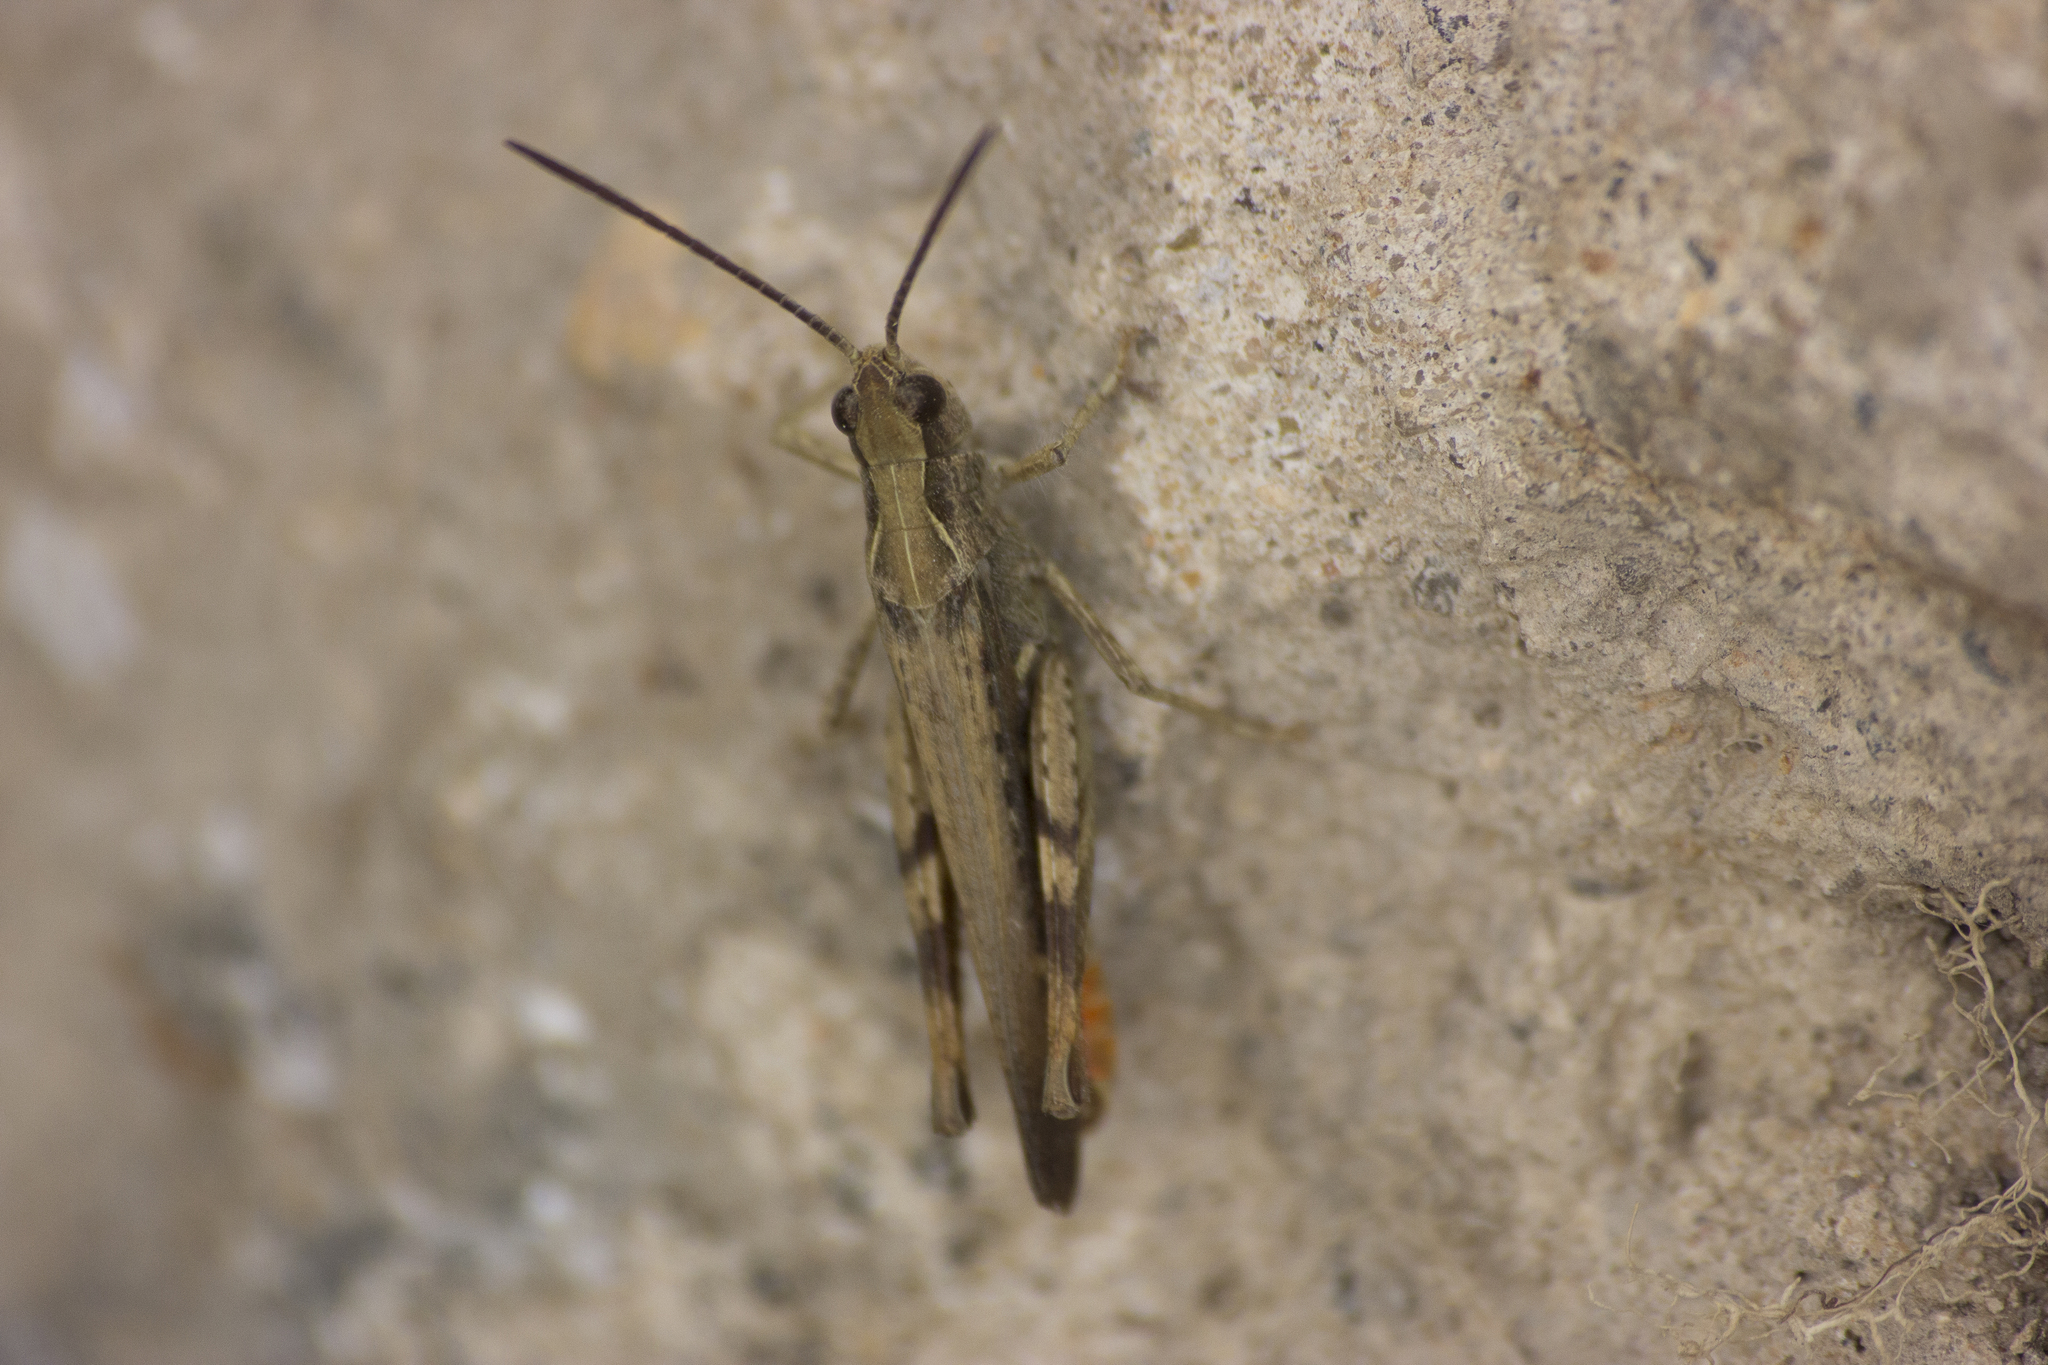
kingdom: Animalia
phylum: Arthropoda
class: Insecta
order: Orthoptera
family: Acrididae
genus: Chorthippus
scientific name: Chorthippus brunneus
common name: Field grasshopper
